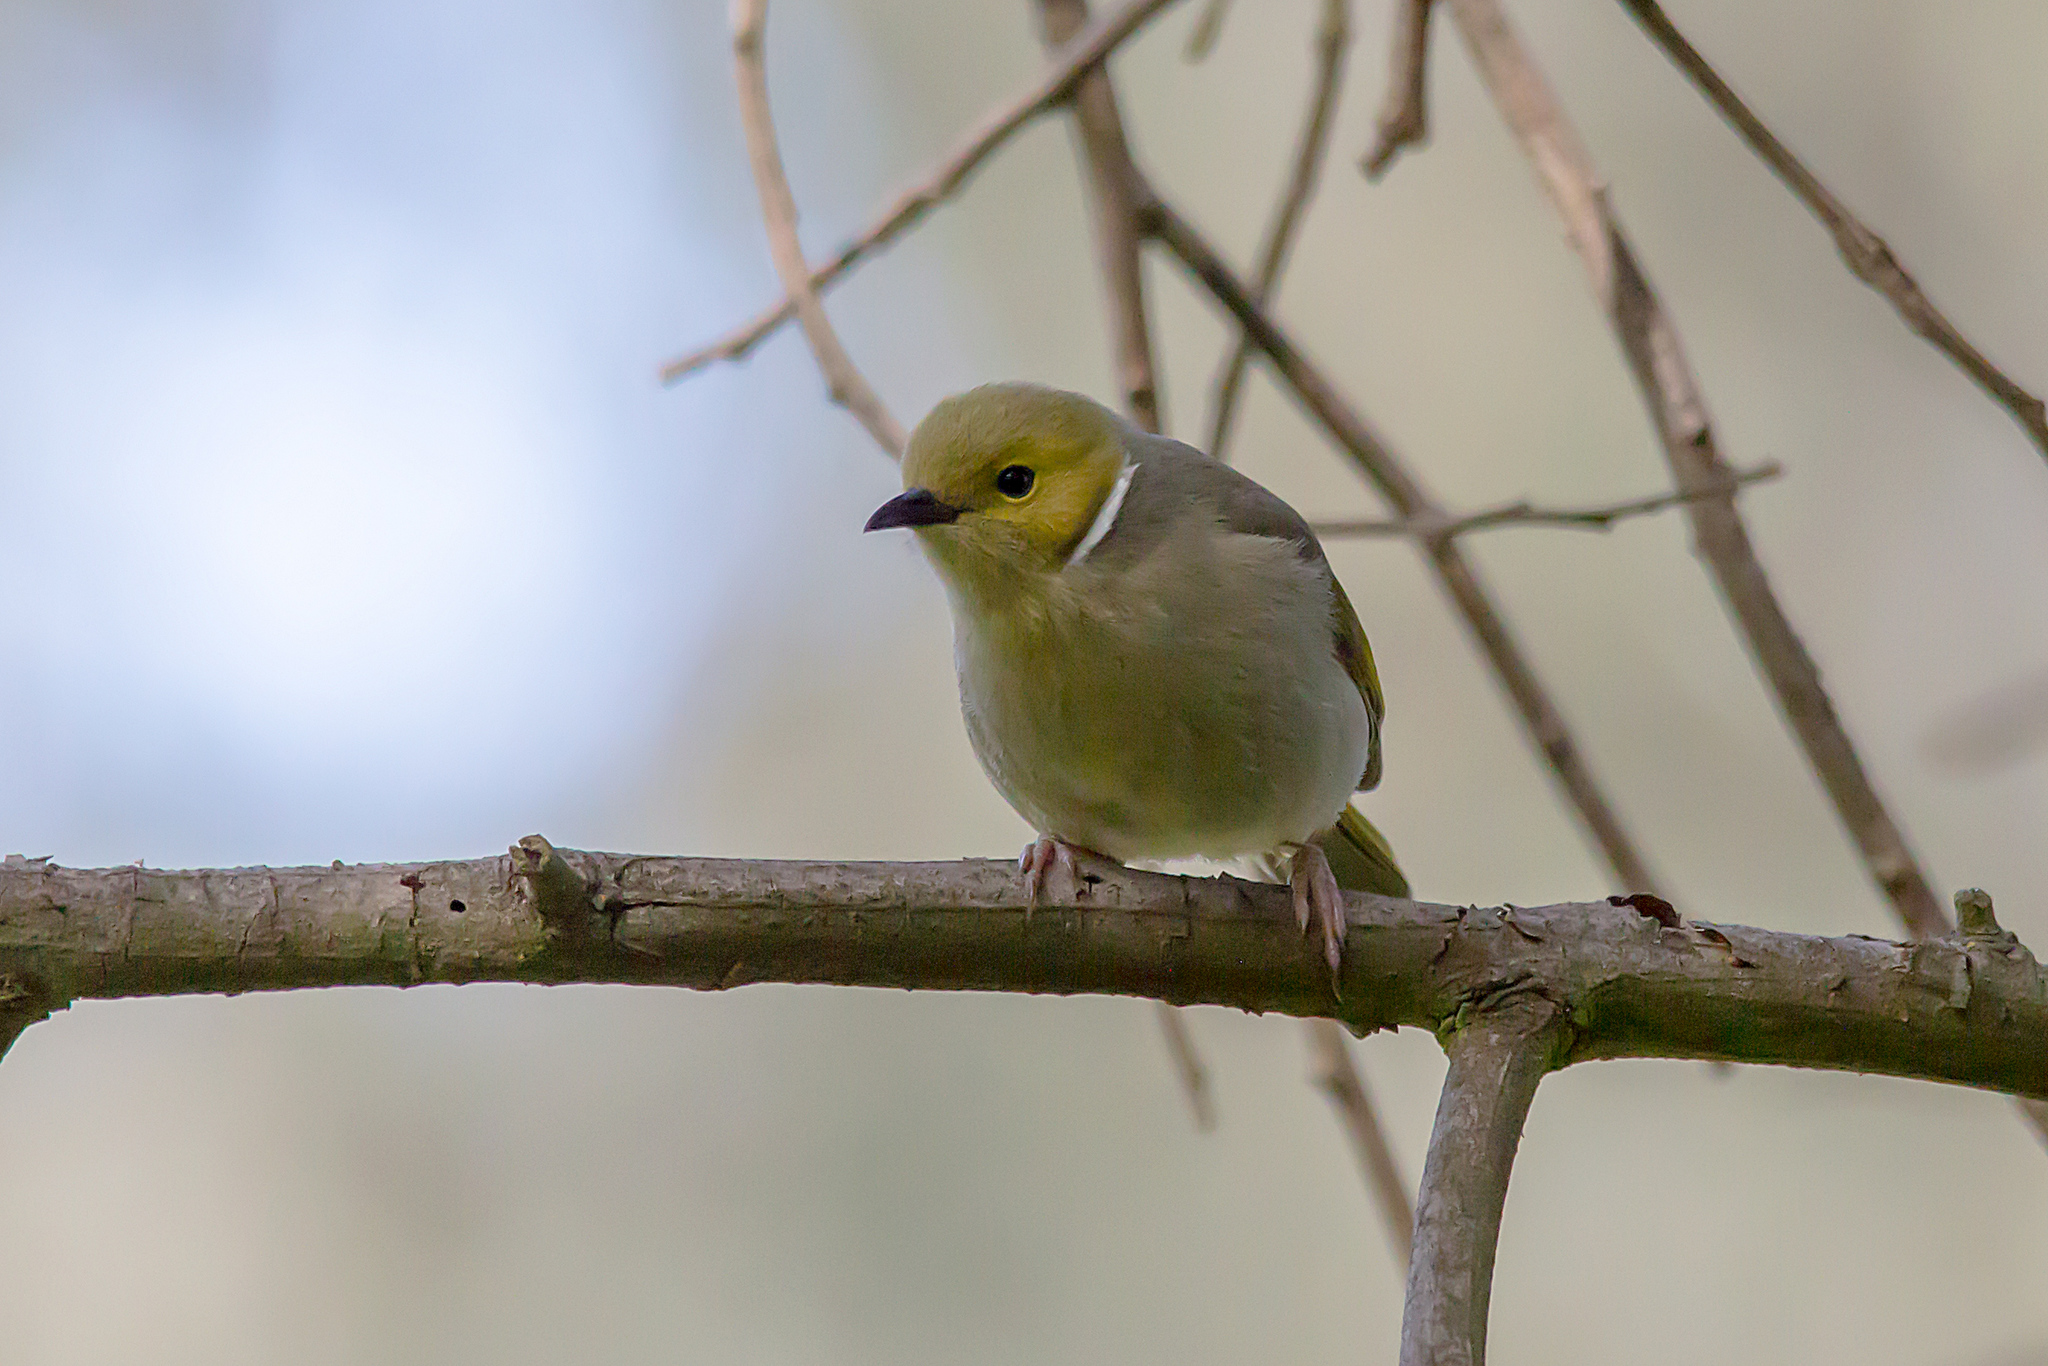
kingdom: Animalia
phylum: Chordata
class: Aves
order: Passeriformes
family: Meliphagidae
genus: Ptilotula
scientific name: Ptilotula penicillata
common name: White-plumed honeyeater
